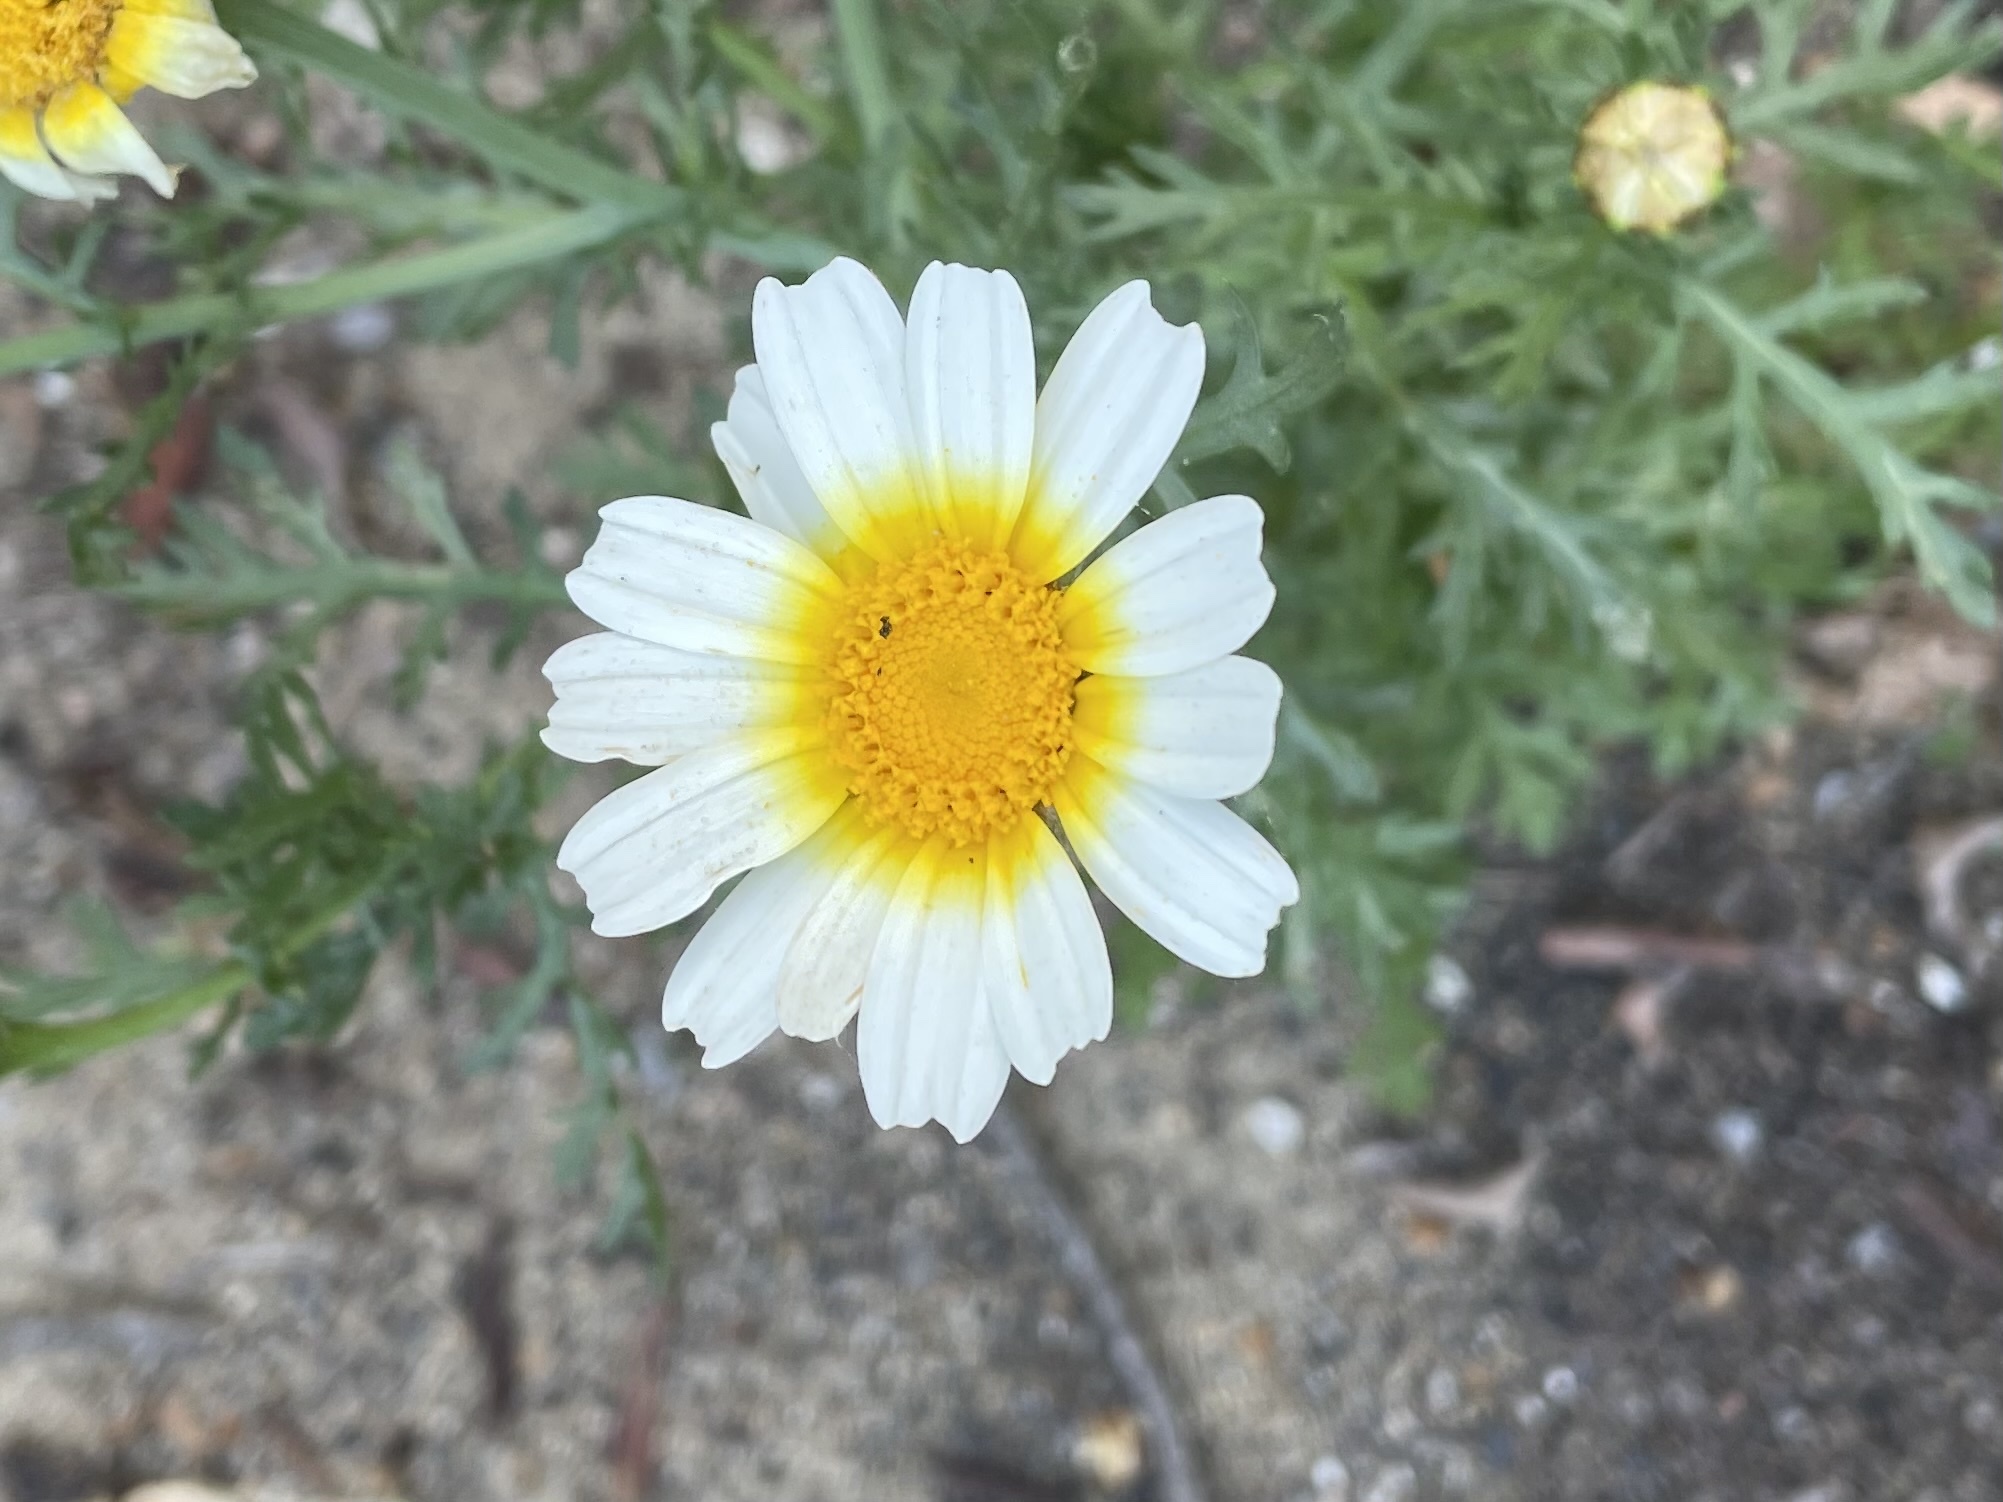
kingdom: Plantae
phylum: Tracheophyta
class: Magnoliopsida
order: Asterales
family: Asteraceae
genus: Glebionis
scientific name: Glebionis coronaria
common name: Crowndaisy
